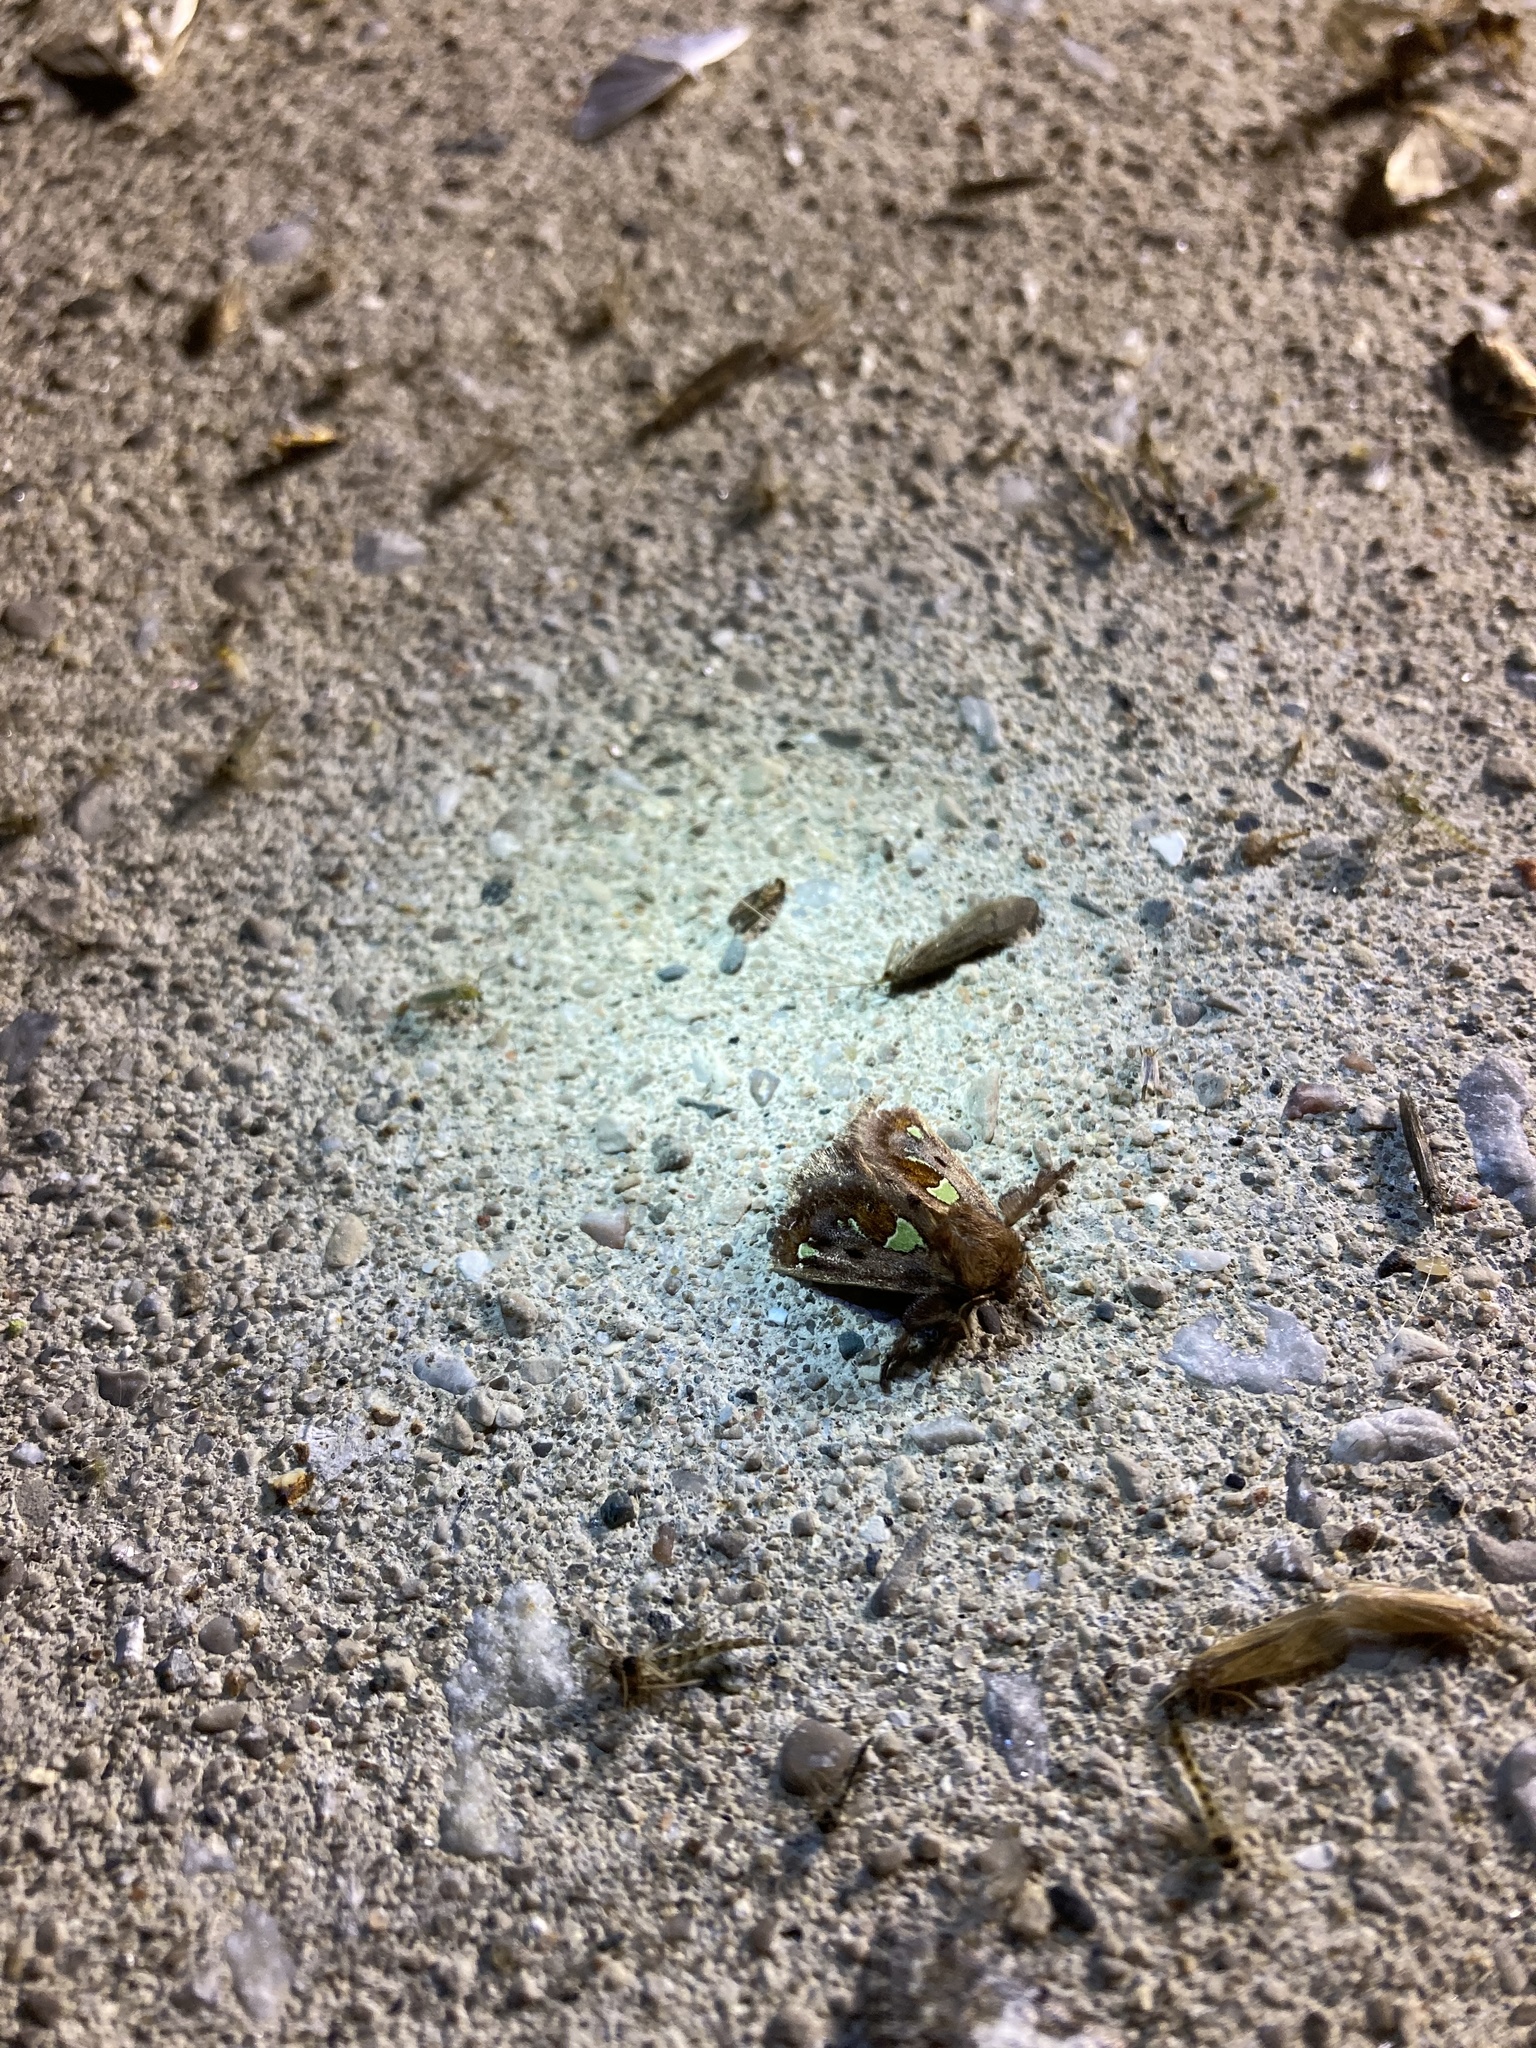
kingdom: Animalia
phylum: Arthropoda
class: Insecta
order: Lepidoptera
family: Limacodidae
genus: Euclea
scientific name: Euclea delphinii
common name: Spiny oak-slug moth
